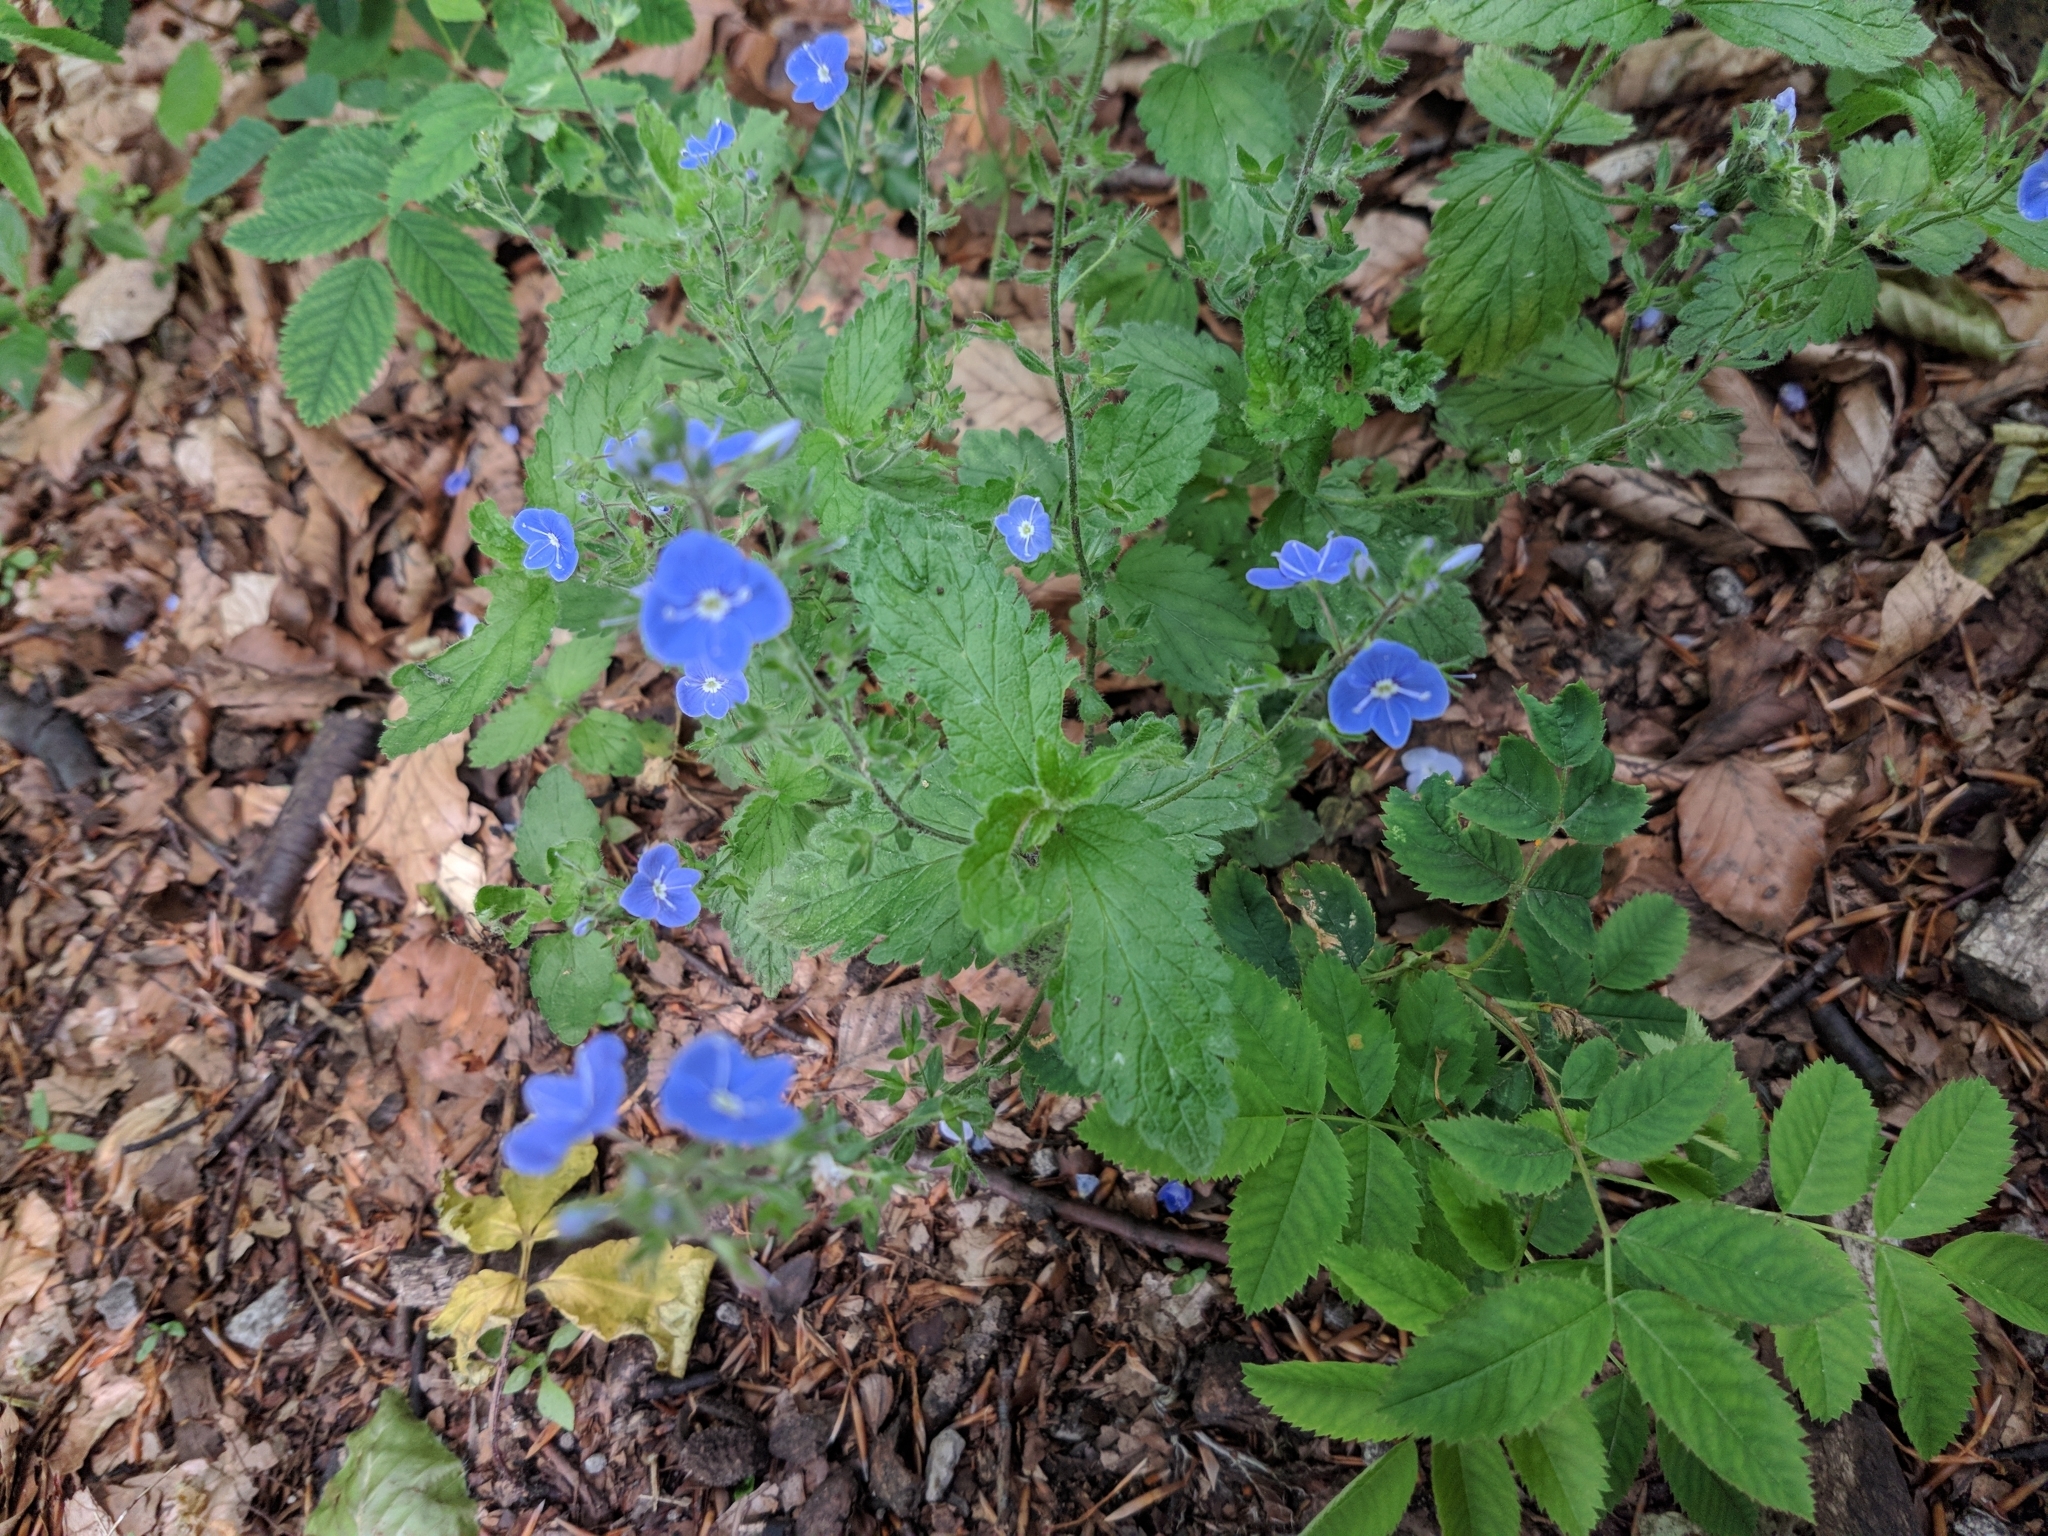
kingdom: Plantae
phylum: Tracheophyta
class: Magnoliopsida
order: Lamiales
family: Plantaginaceae
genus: Veronica
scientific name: Veronica chamaedrys
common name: Germander speedwell
